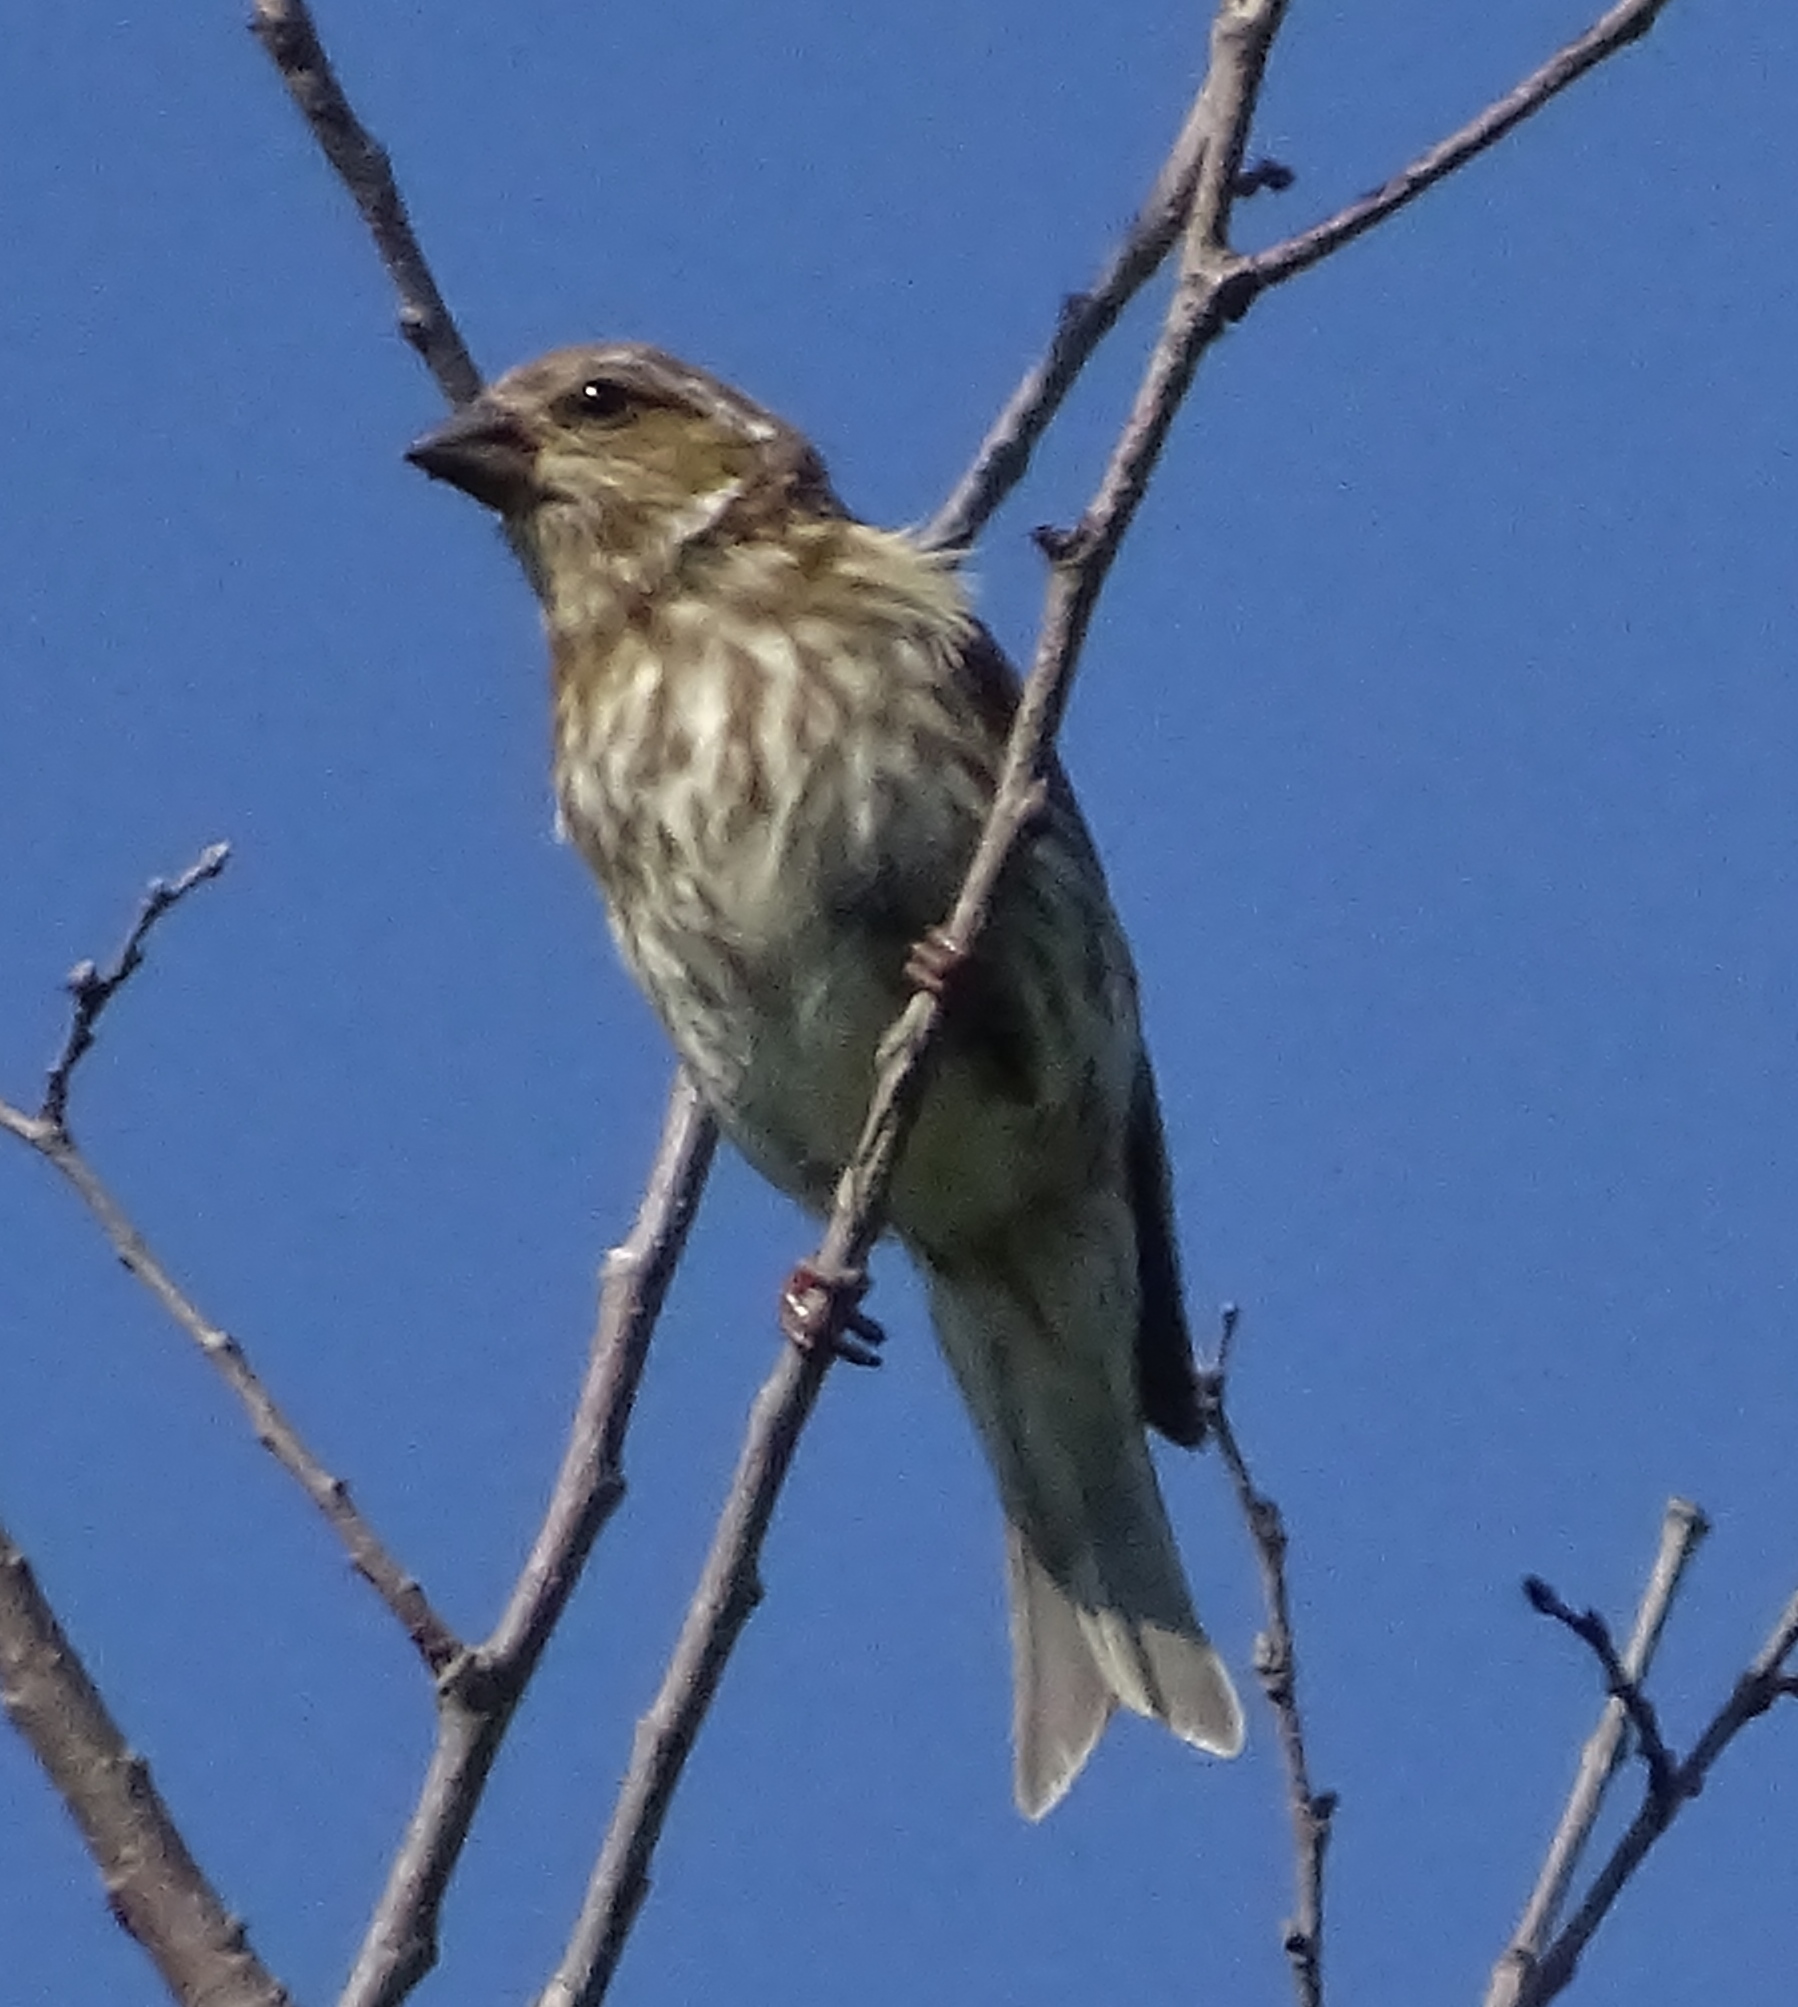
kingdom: Animalia
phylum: Chordata
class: Aves
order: Passeriformes
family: Fringillidae
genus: Haemorhous
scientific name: Haemorhous purpureus
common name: Purple finch
